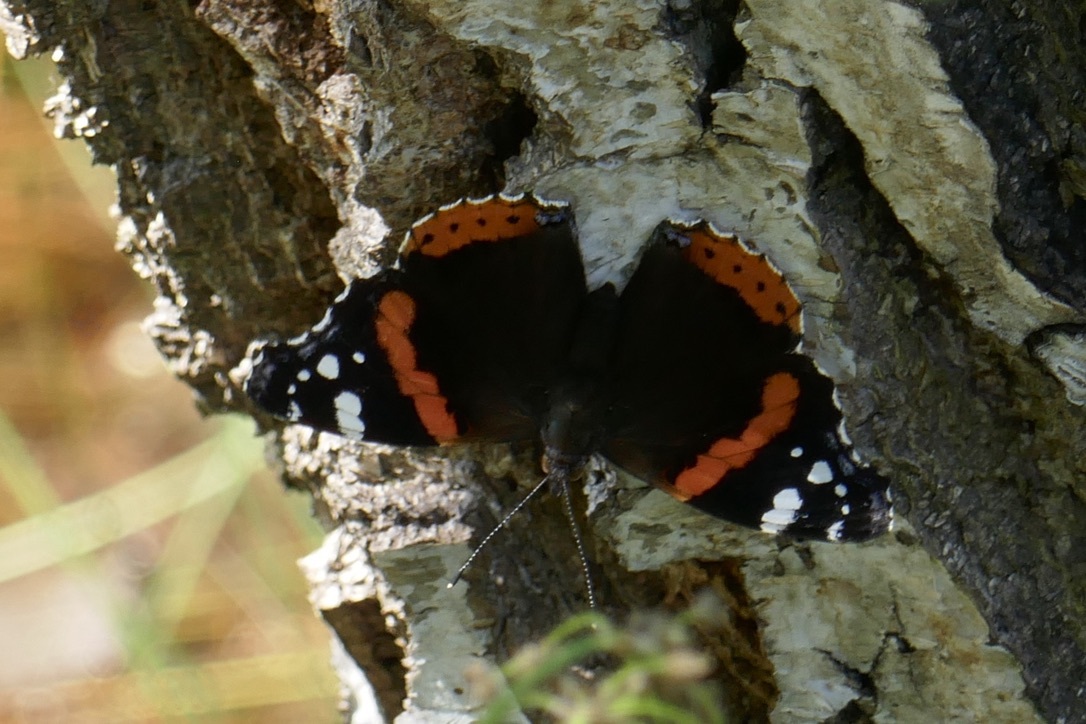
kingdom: Animalia
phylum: Arthropoda
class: Insecta
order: Lepidoptera
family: Nymphalidae
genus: Vanessa
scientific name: Vanessa atalanta
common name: Red admiral
